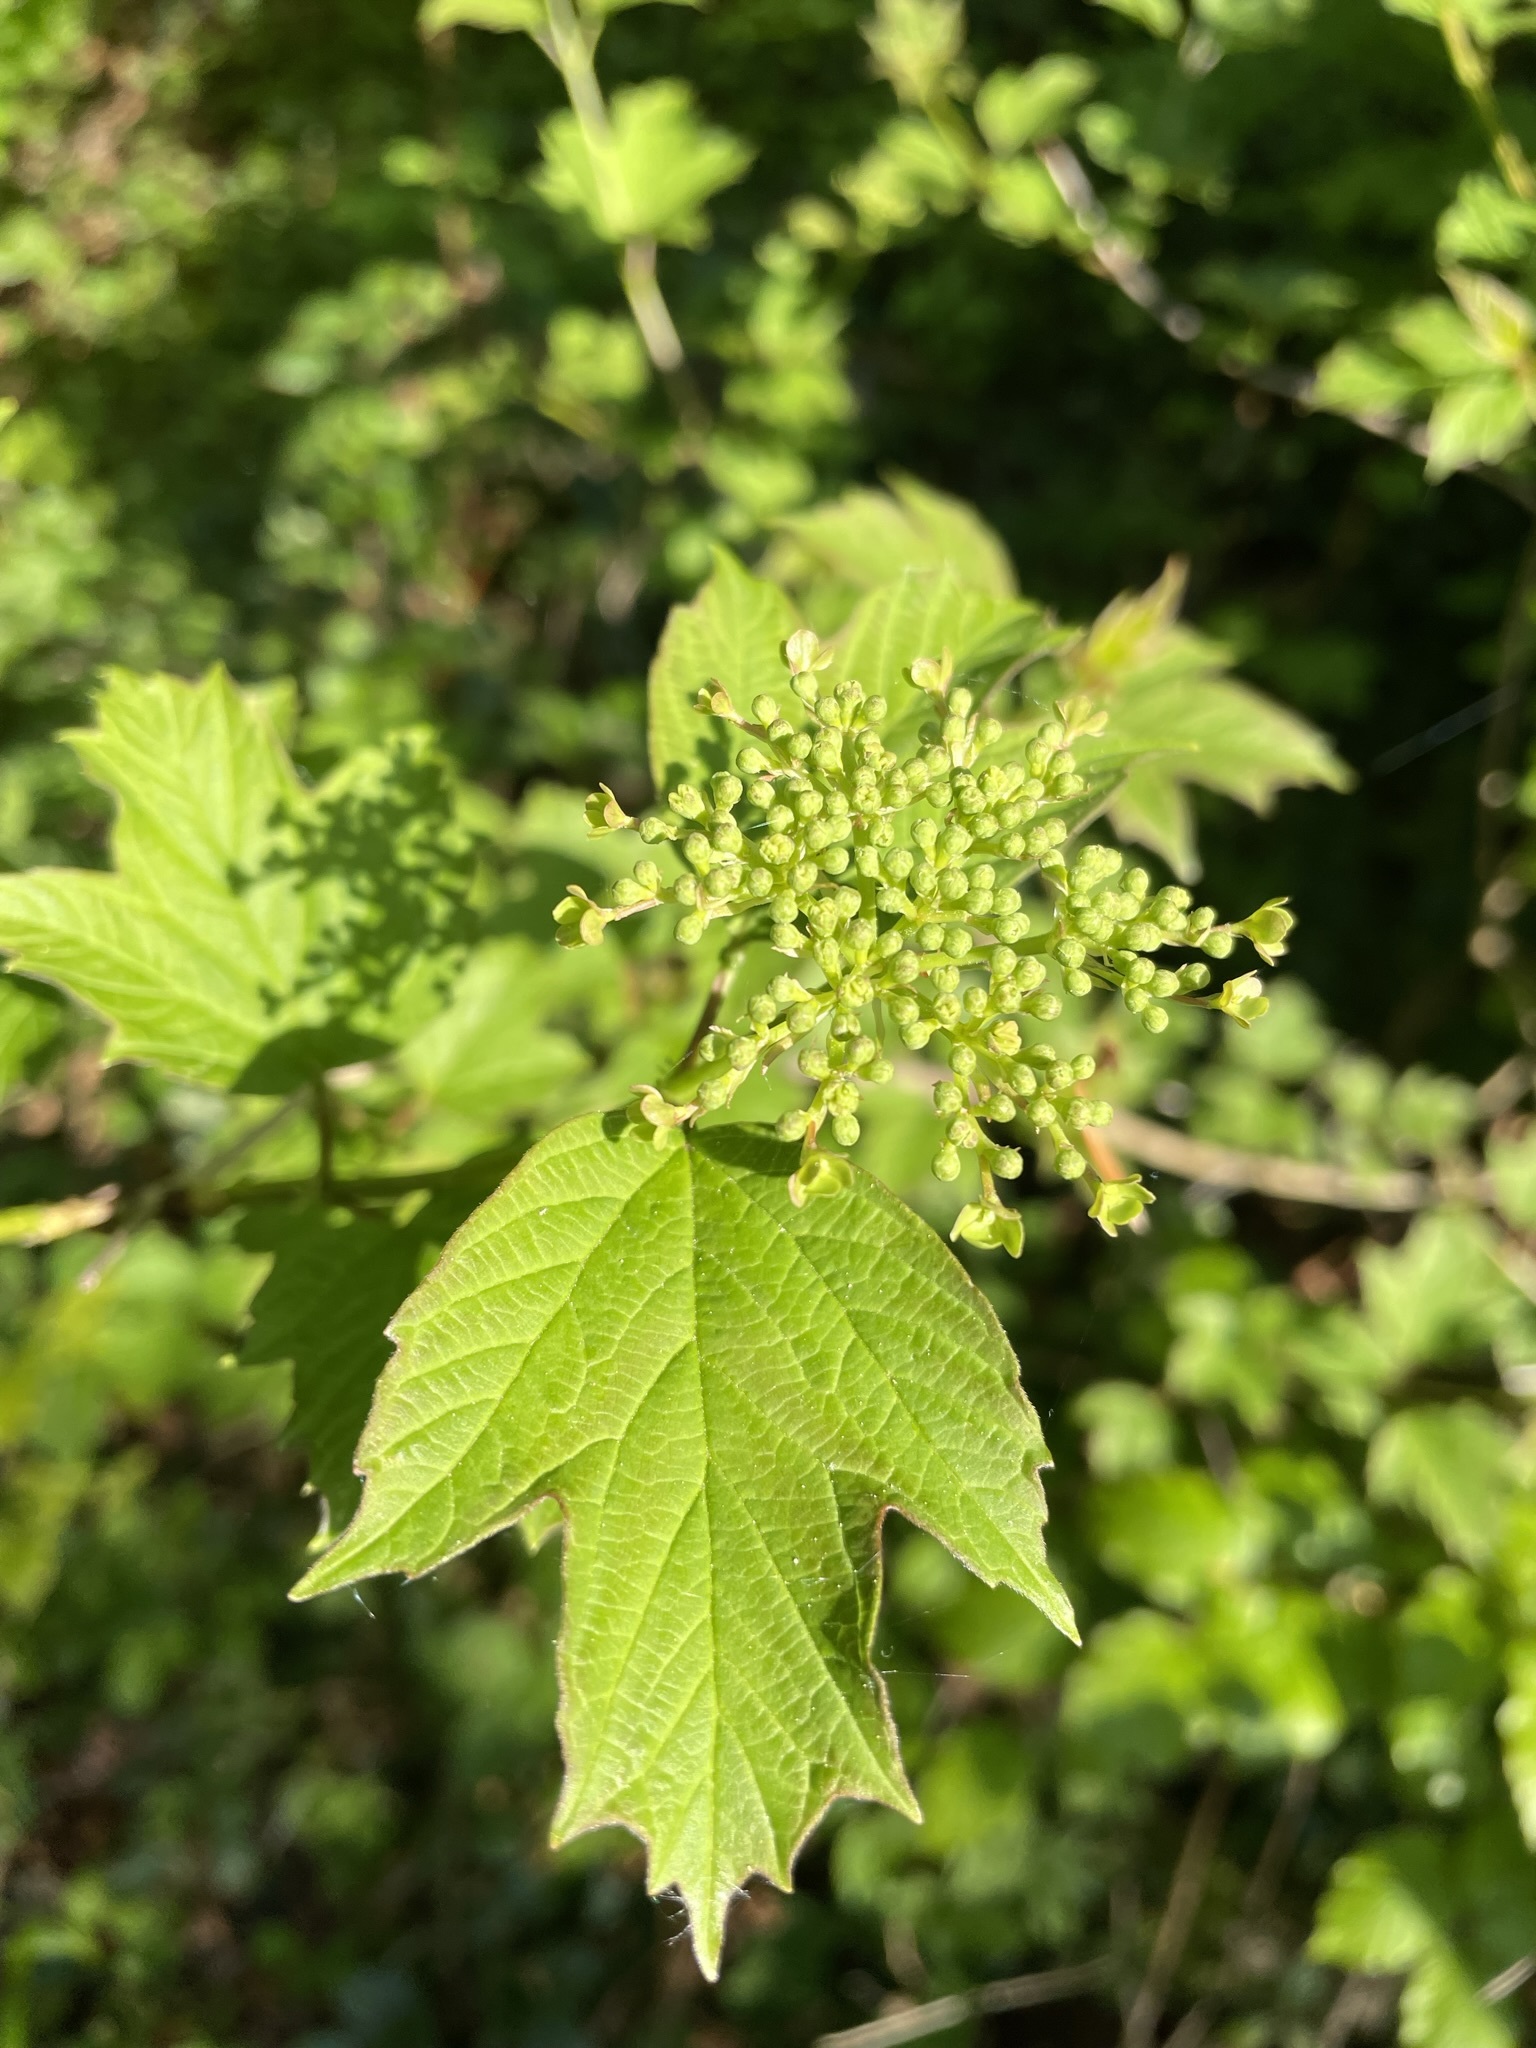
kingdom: Plantae
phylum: Tracheophyta
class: Magnoliopsida
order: Dipsacales
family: Viburnaceae
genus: Viburnum
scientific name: Viburnum opulus
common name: Guelder-rose
